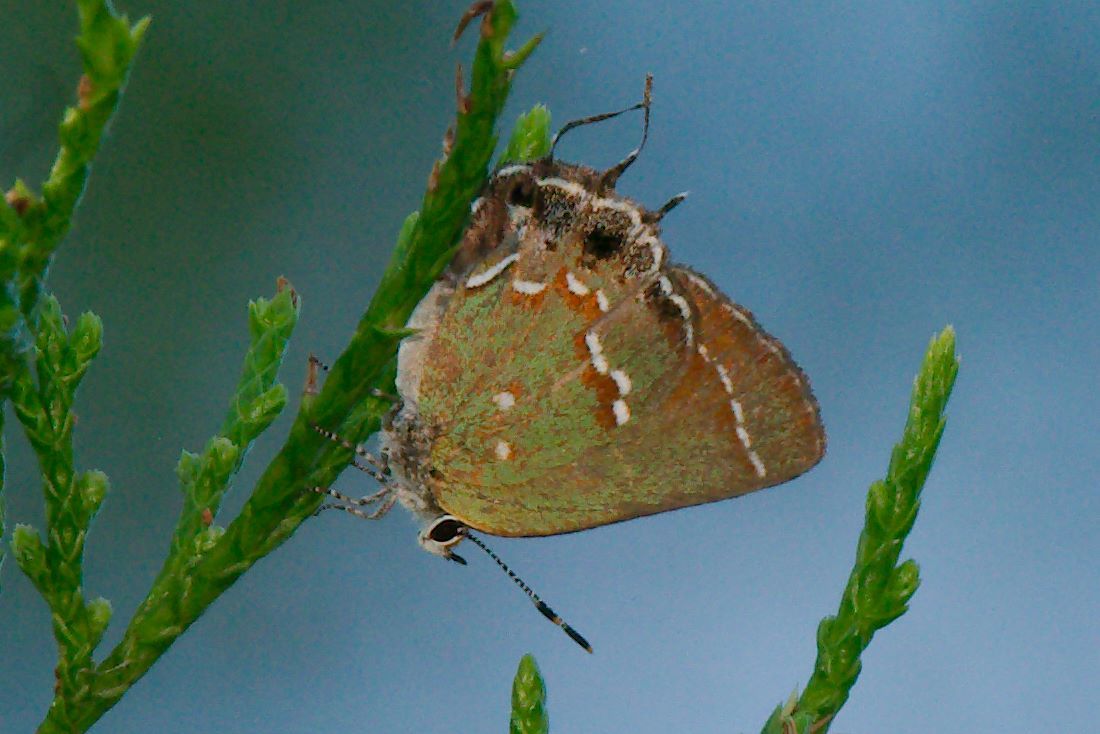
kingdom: Animalia
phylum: Arthropoda
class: Insecta
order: Lepidoptera
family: Lycaenidae
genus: Mitoura
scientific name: Mitoura gryneus
